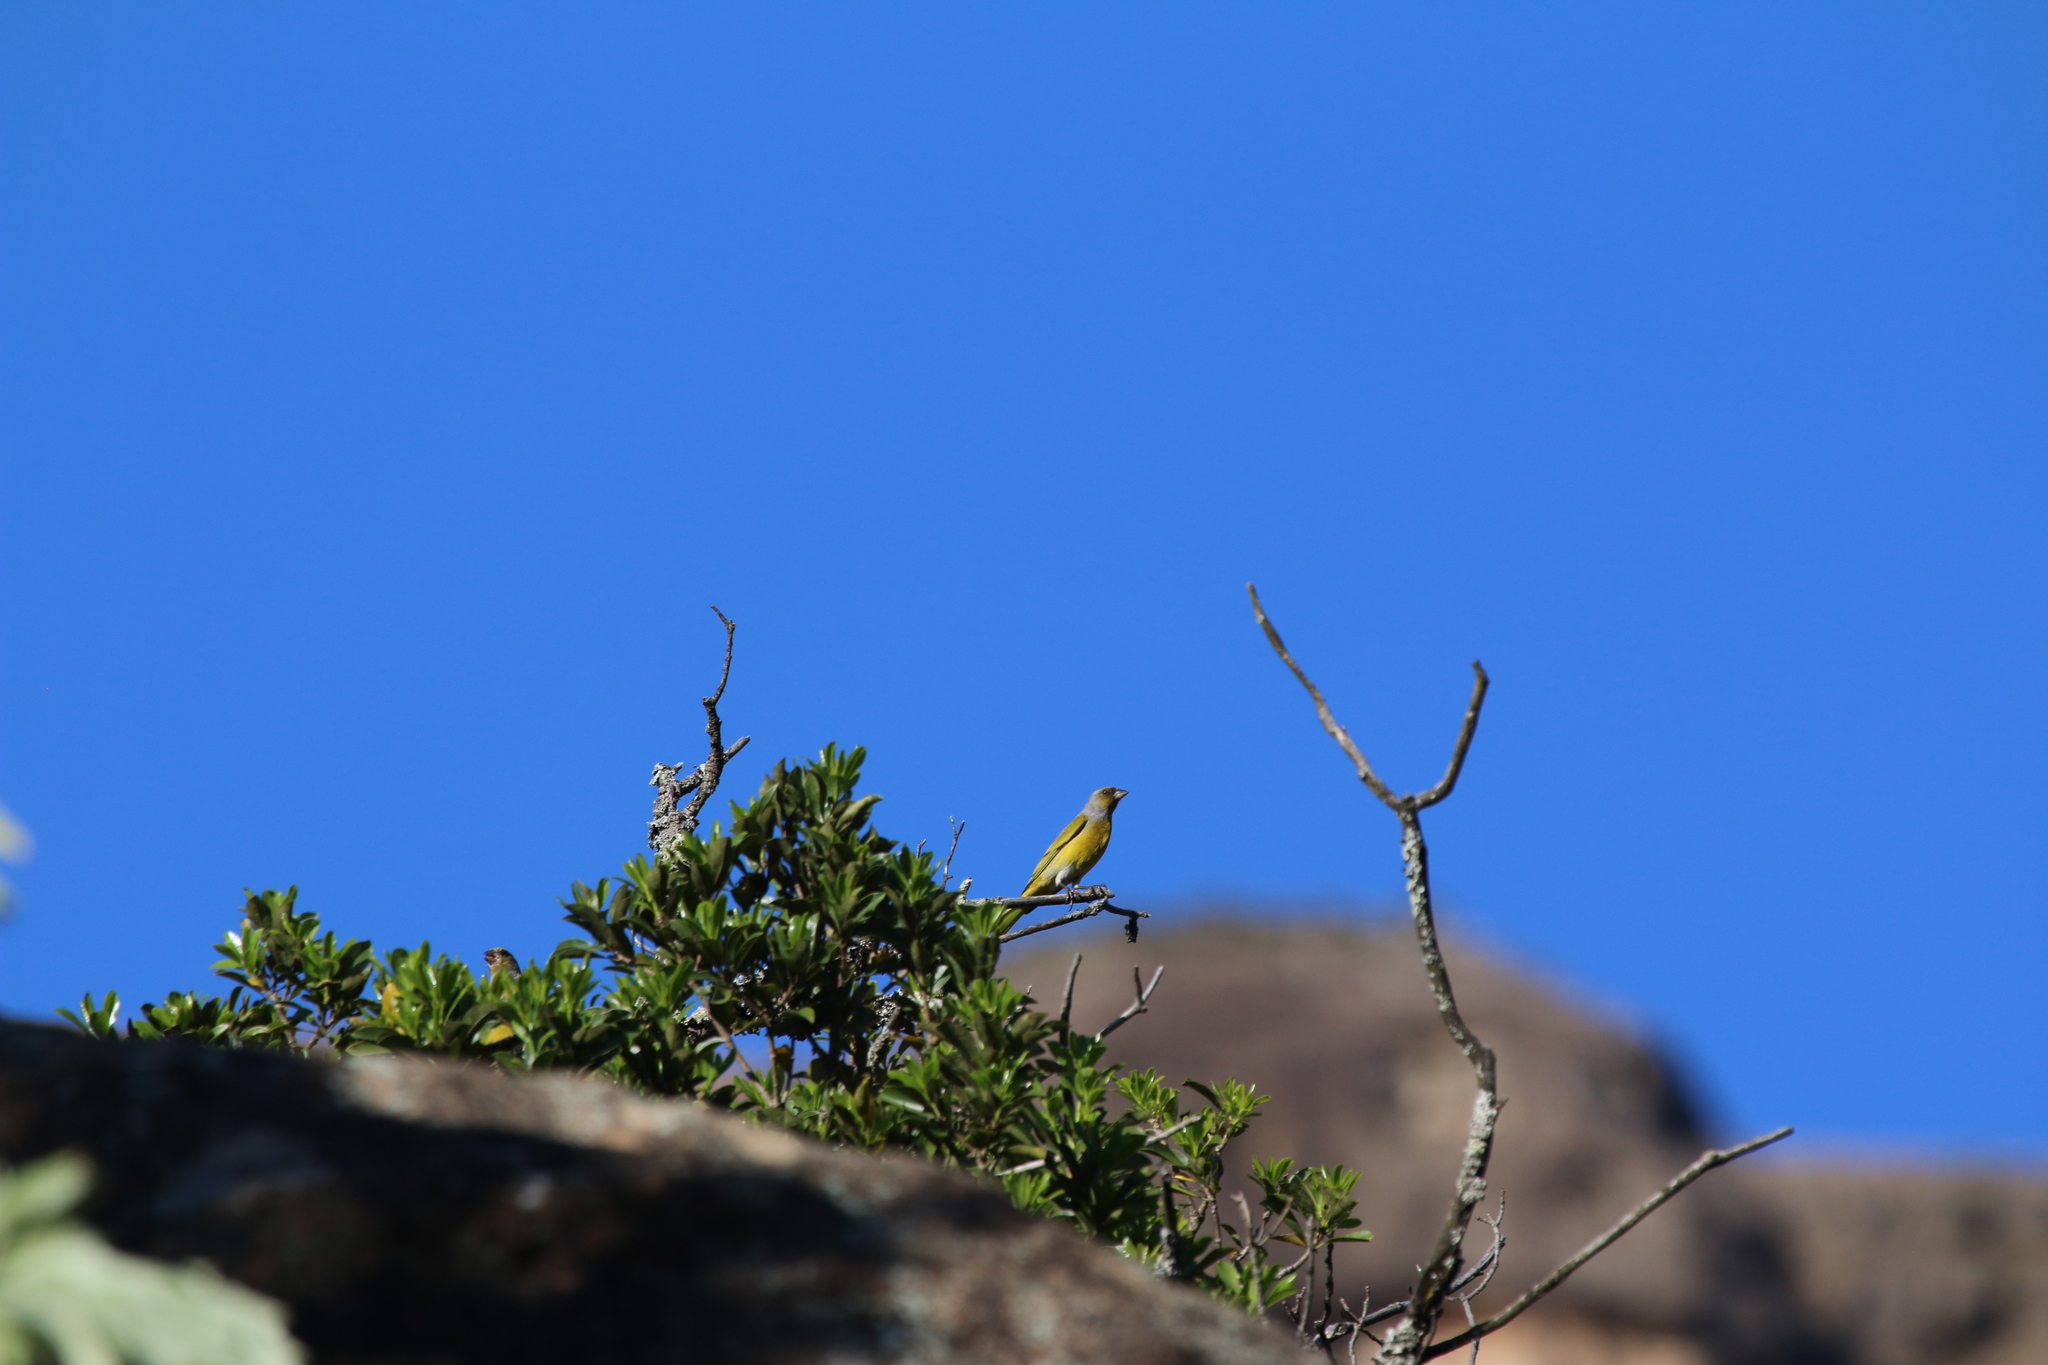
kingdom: Animalia
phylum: Chordata
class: Aves
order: Passeriformes
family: Fringillidae
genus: Serinus
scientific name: Serinus canicollis
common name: Cape canary
